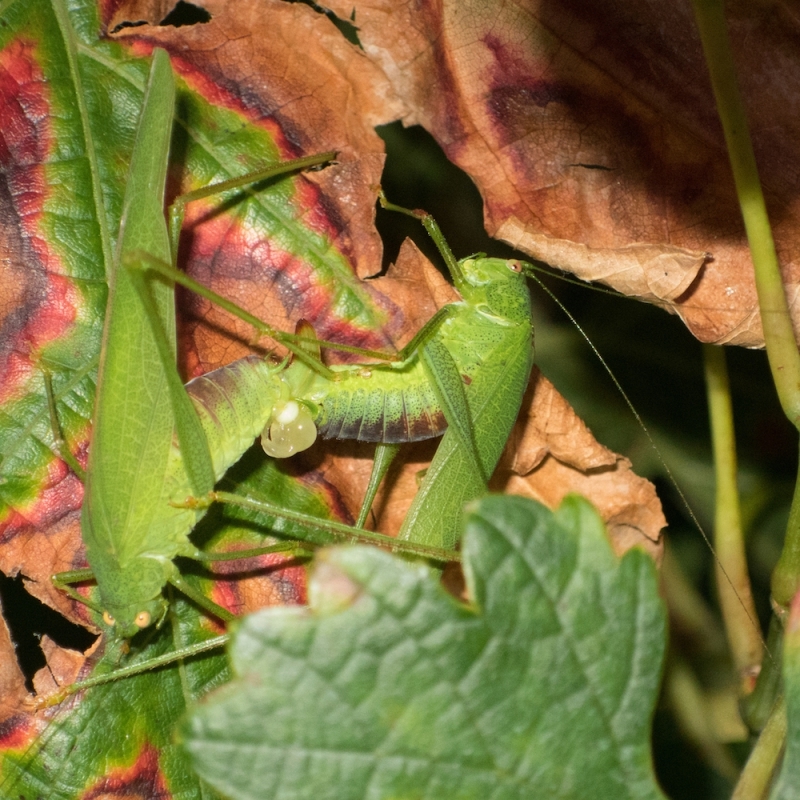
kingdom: Animalia
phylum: Arthropoda
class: Insecta
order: Orthoptera
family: Tettigoniidae
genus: Phaneroptera
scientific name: Phaneroptera nana
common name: Southern sickle bush-cricket
